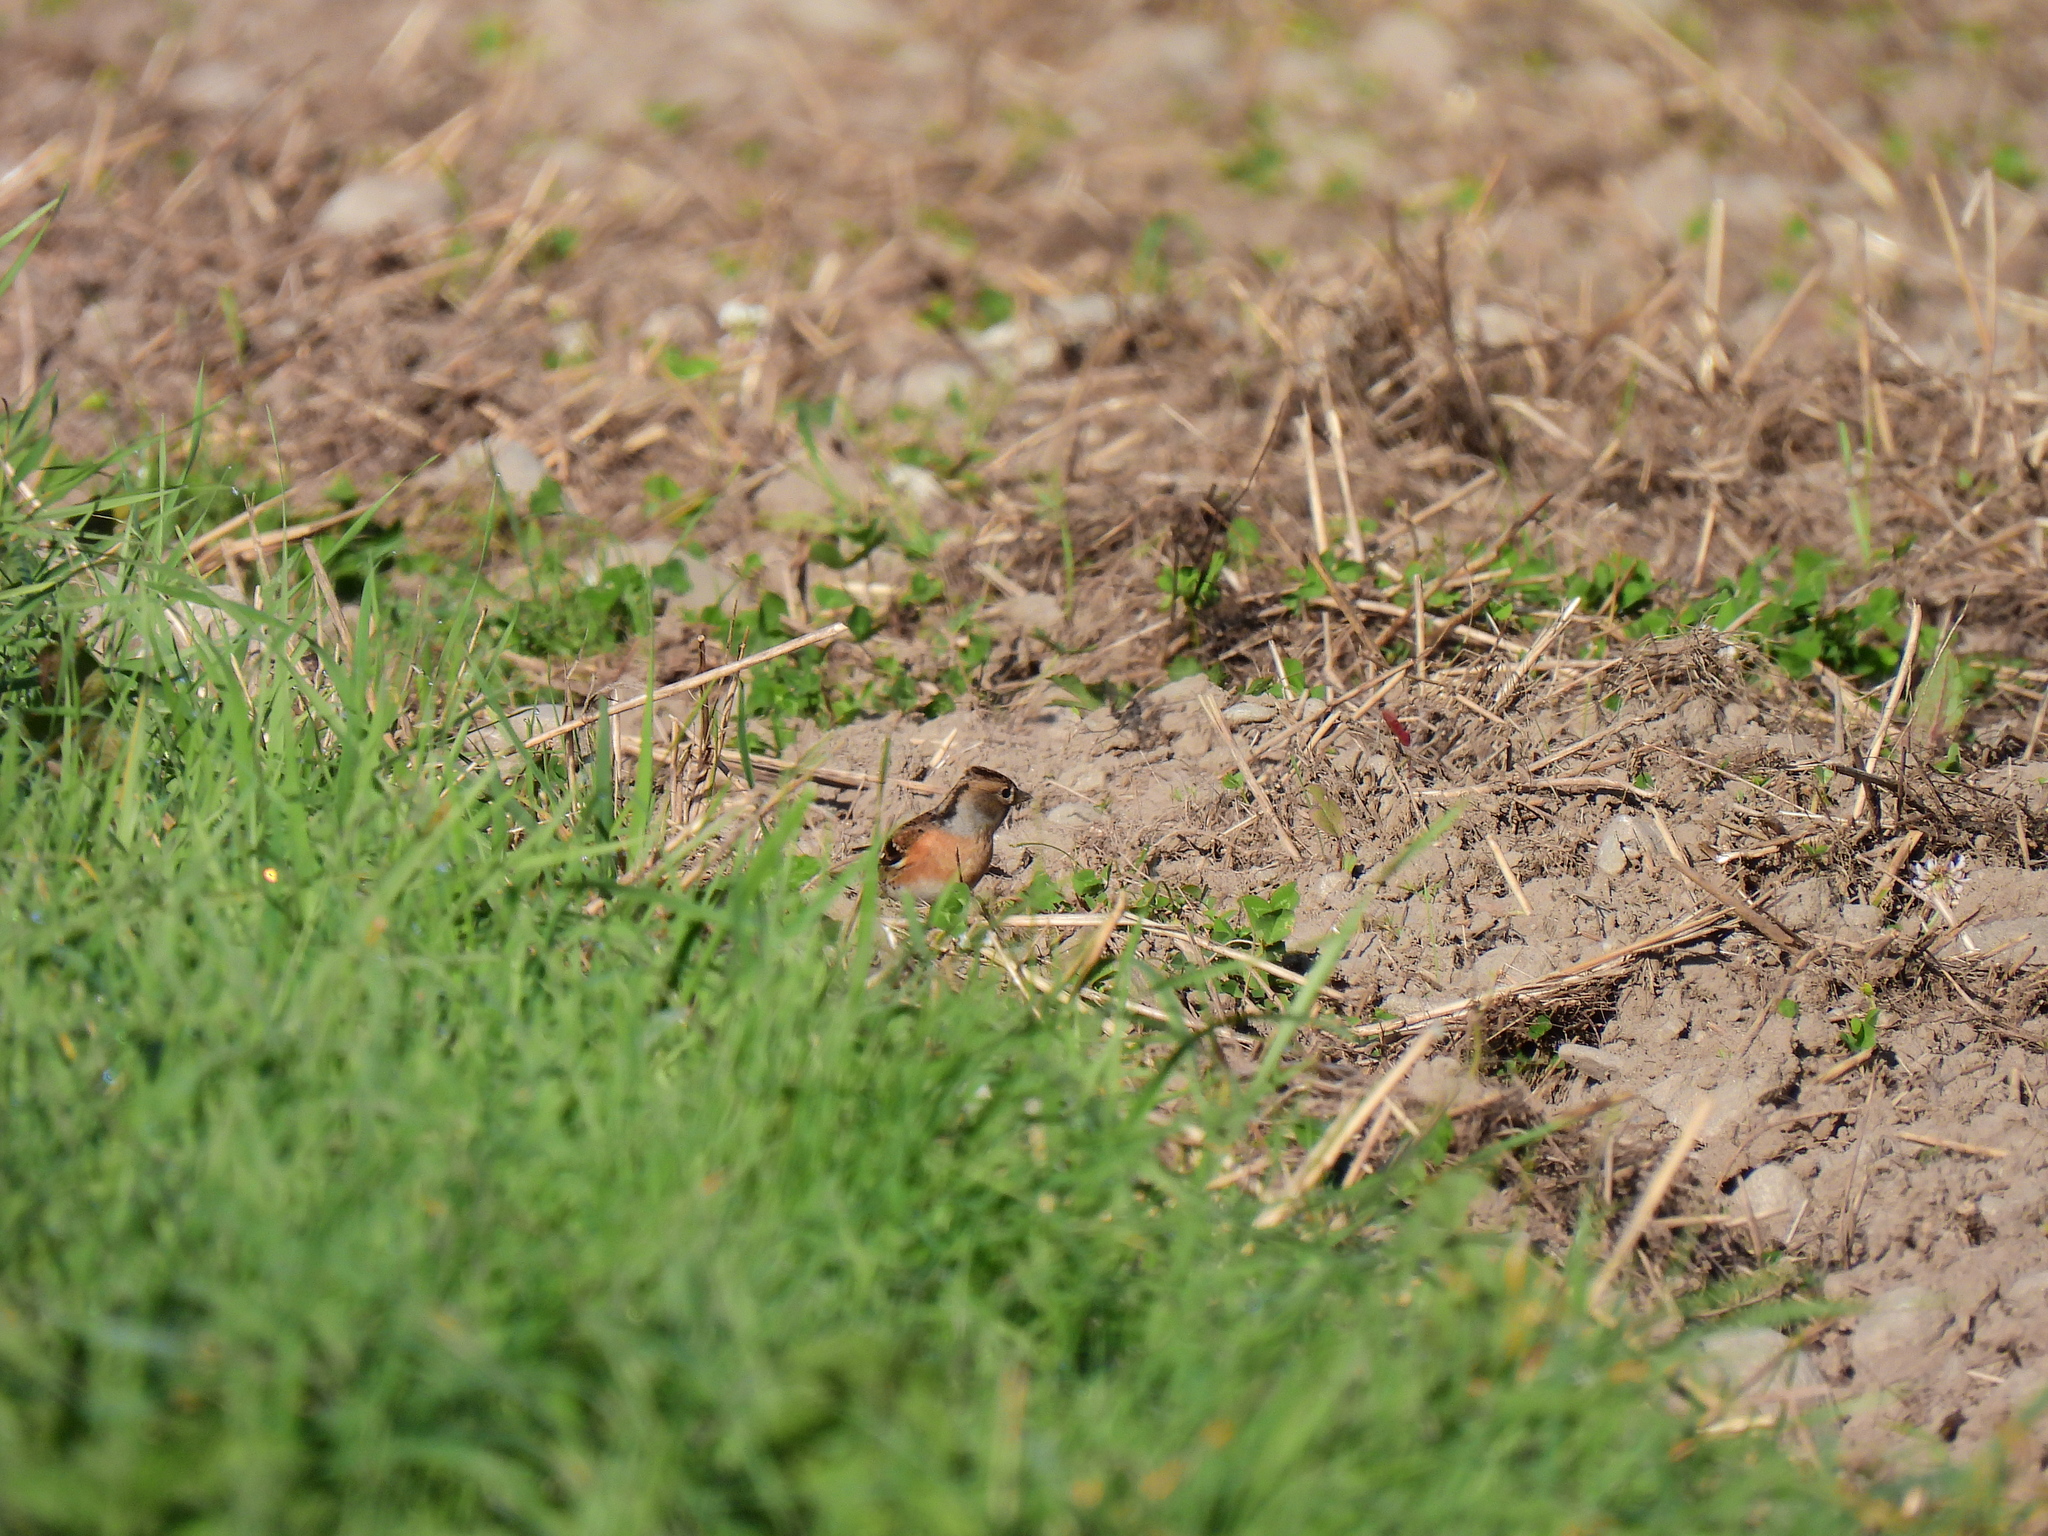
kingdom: Animalia
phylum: Chordata
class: Aves
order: Passeriformes
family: Fringillidae
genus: Fringilla
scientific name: Fringilla montifringilla
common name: Brambling
